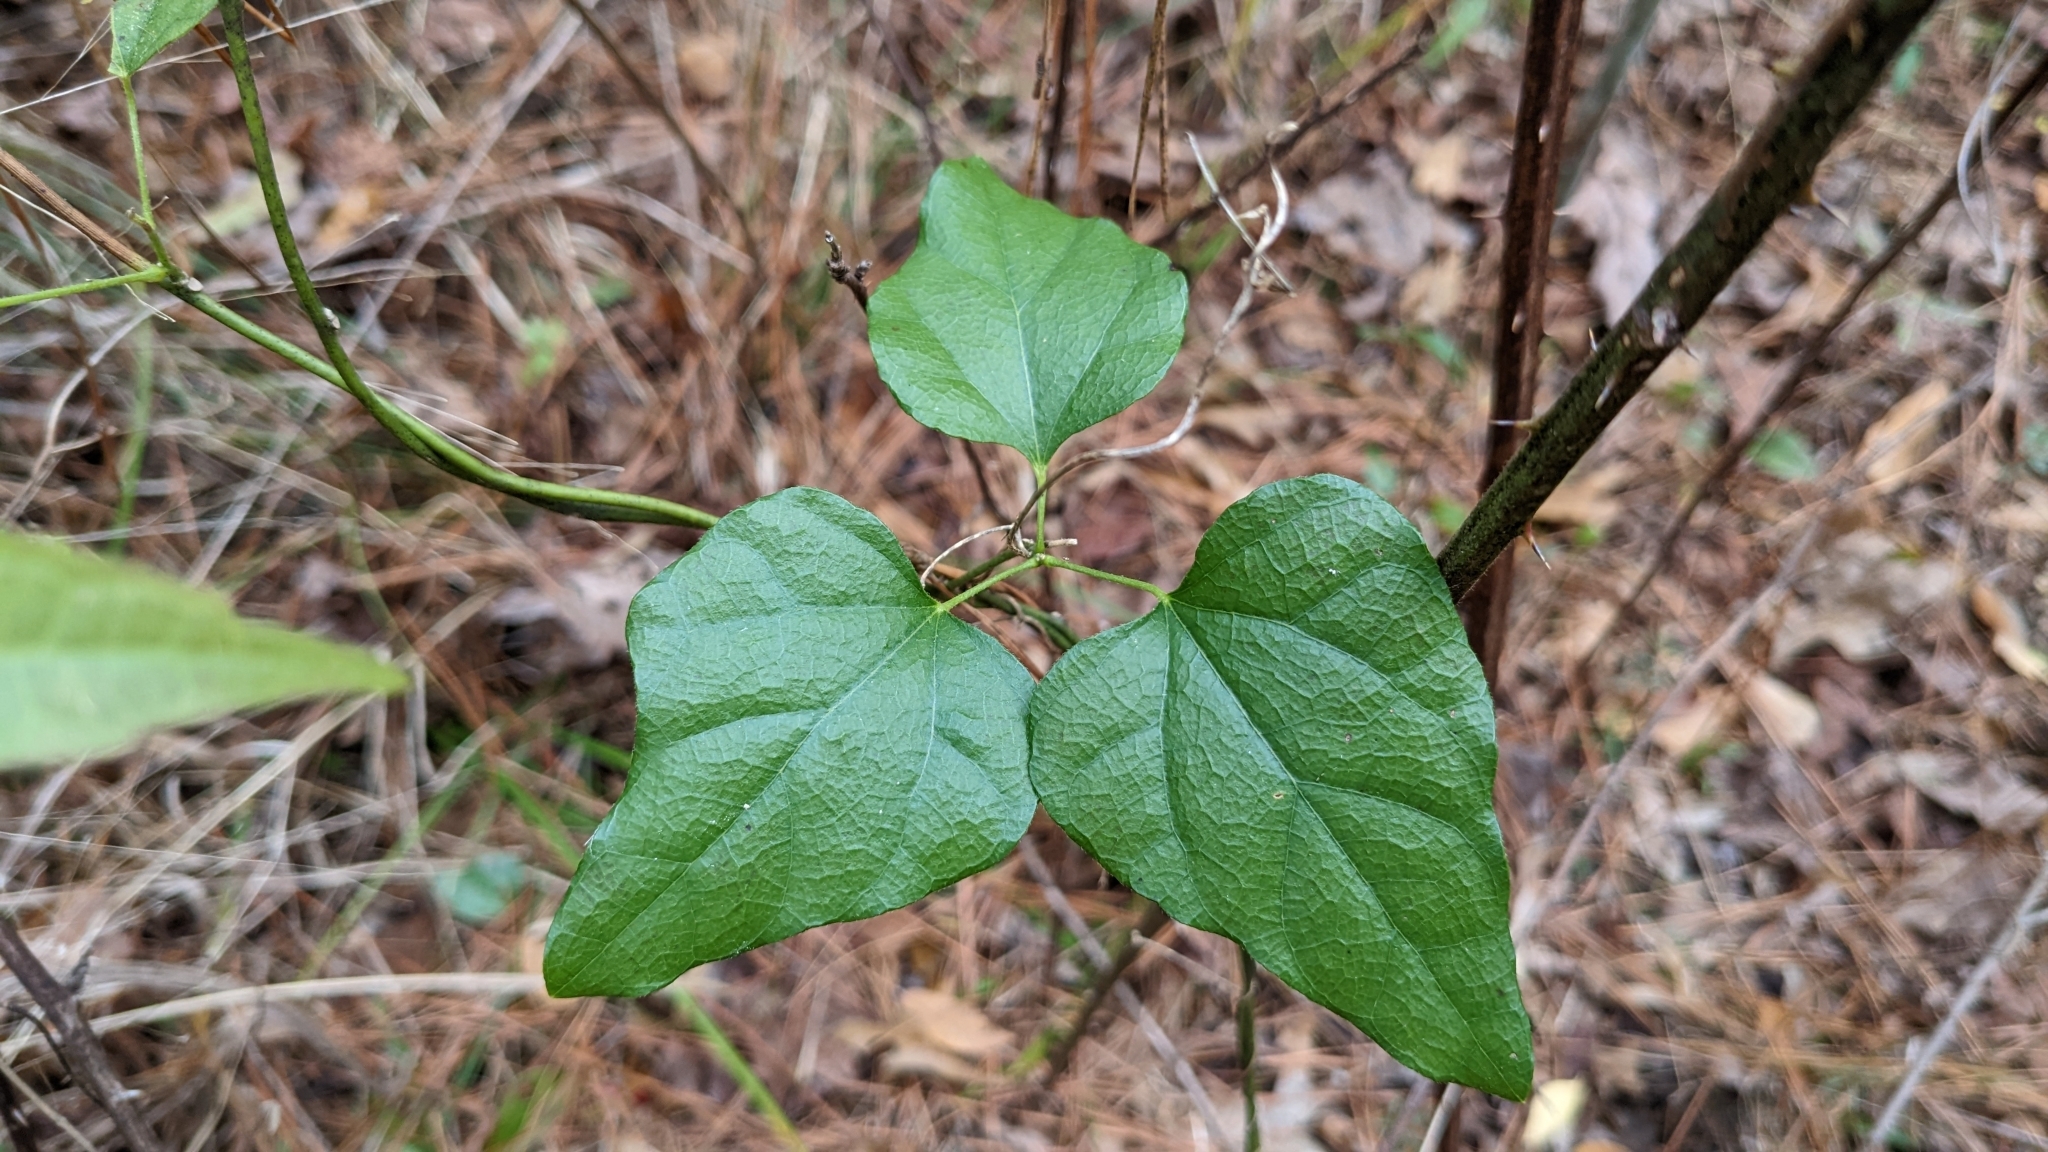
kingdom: Plantae
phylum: Tracheophyta
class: Magnoliopsida
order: Ranunculales
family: Menispermaceae
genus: Cocculus
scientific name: Cocculus carolinus
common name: Carolina moonseed
